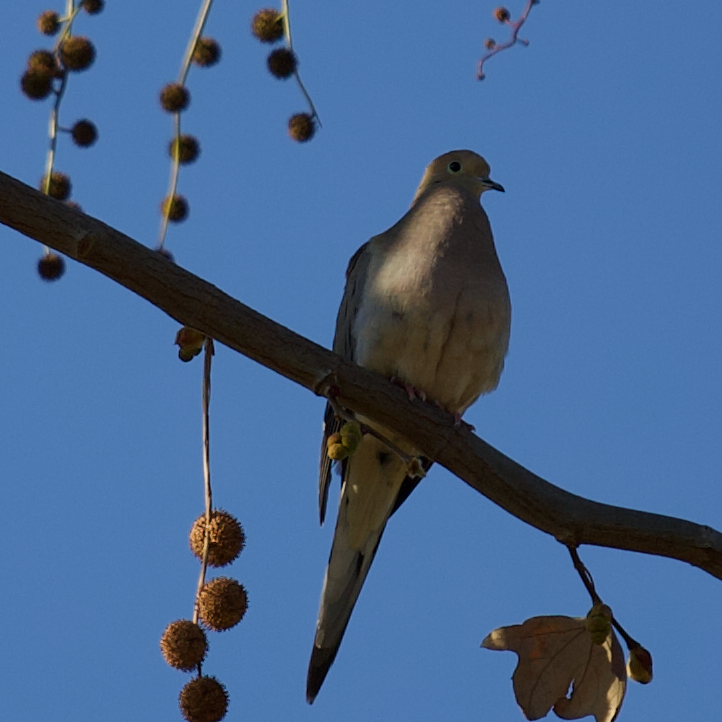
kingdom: Animalia
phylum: Chordata
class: Aves
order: Columbiformes
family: Columbidae
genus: Zenaida
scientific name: Zenaida macroura
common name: Mourning dove
